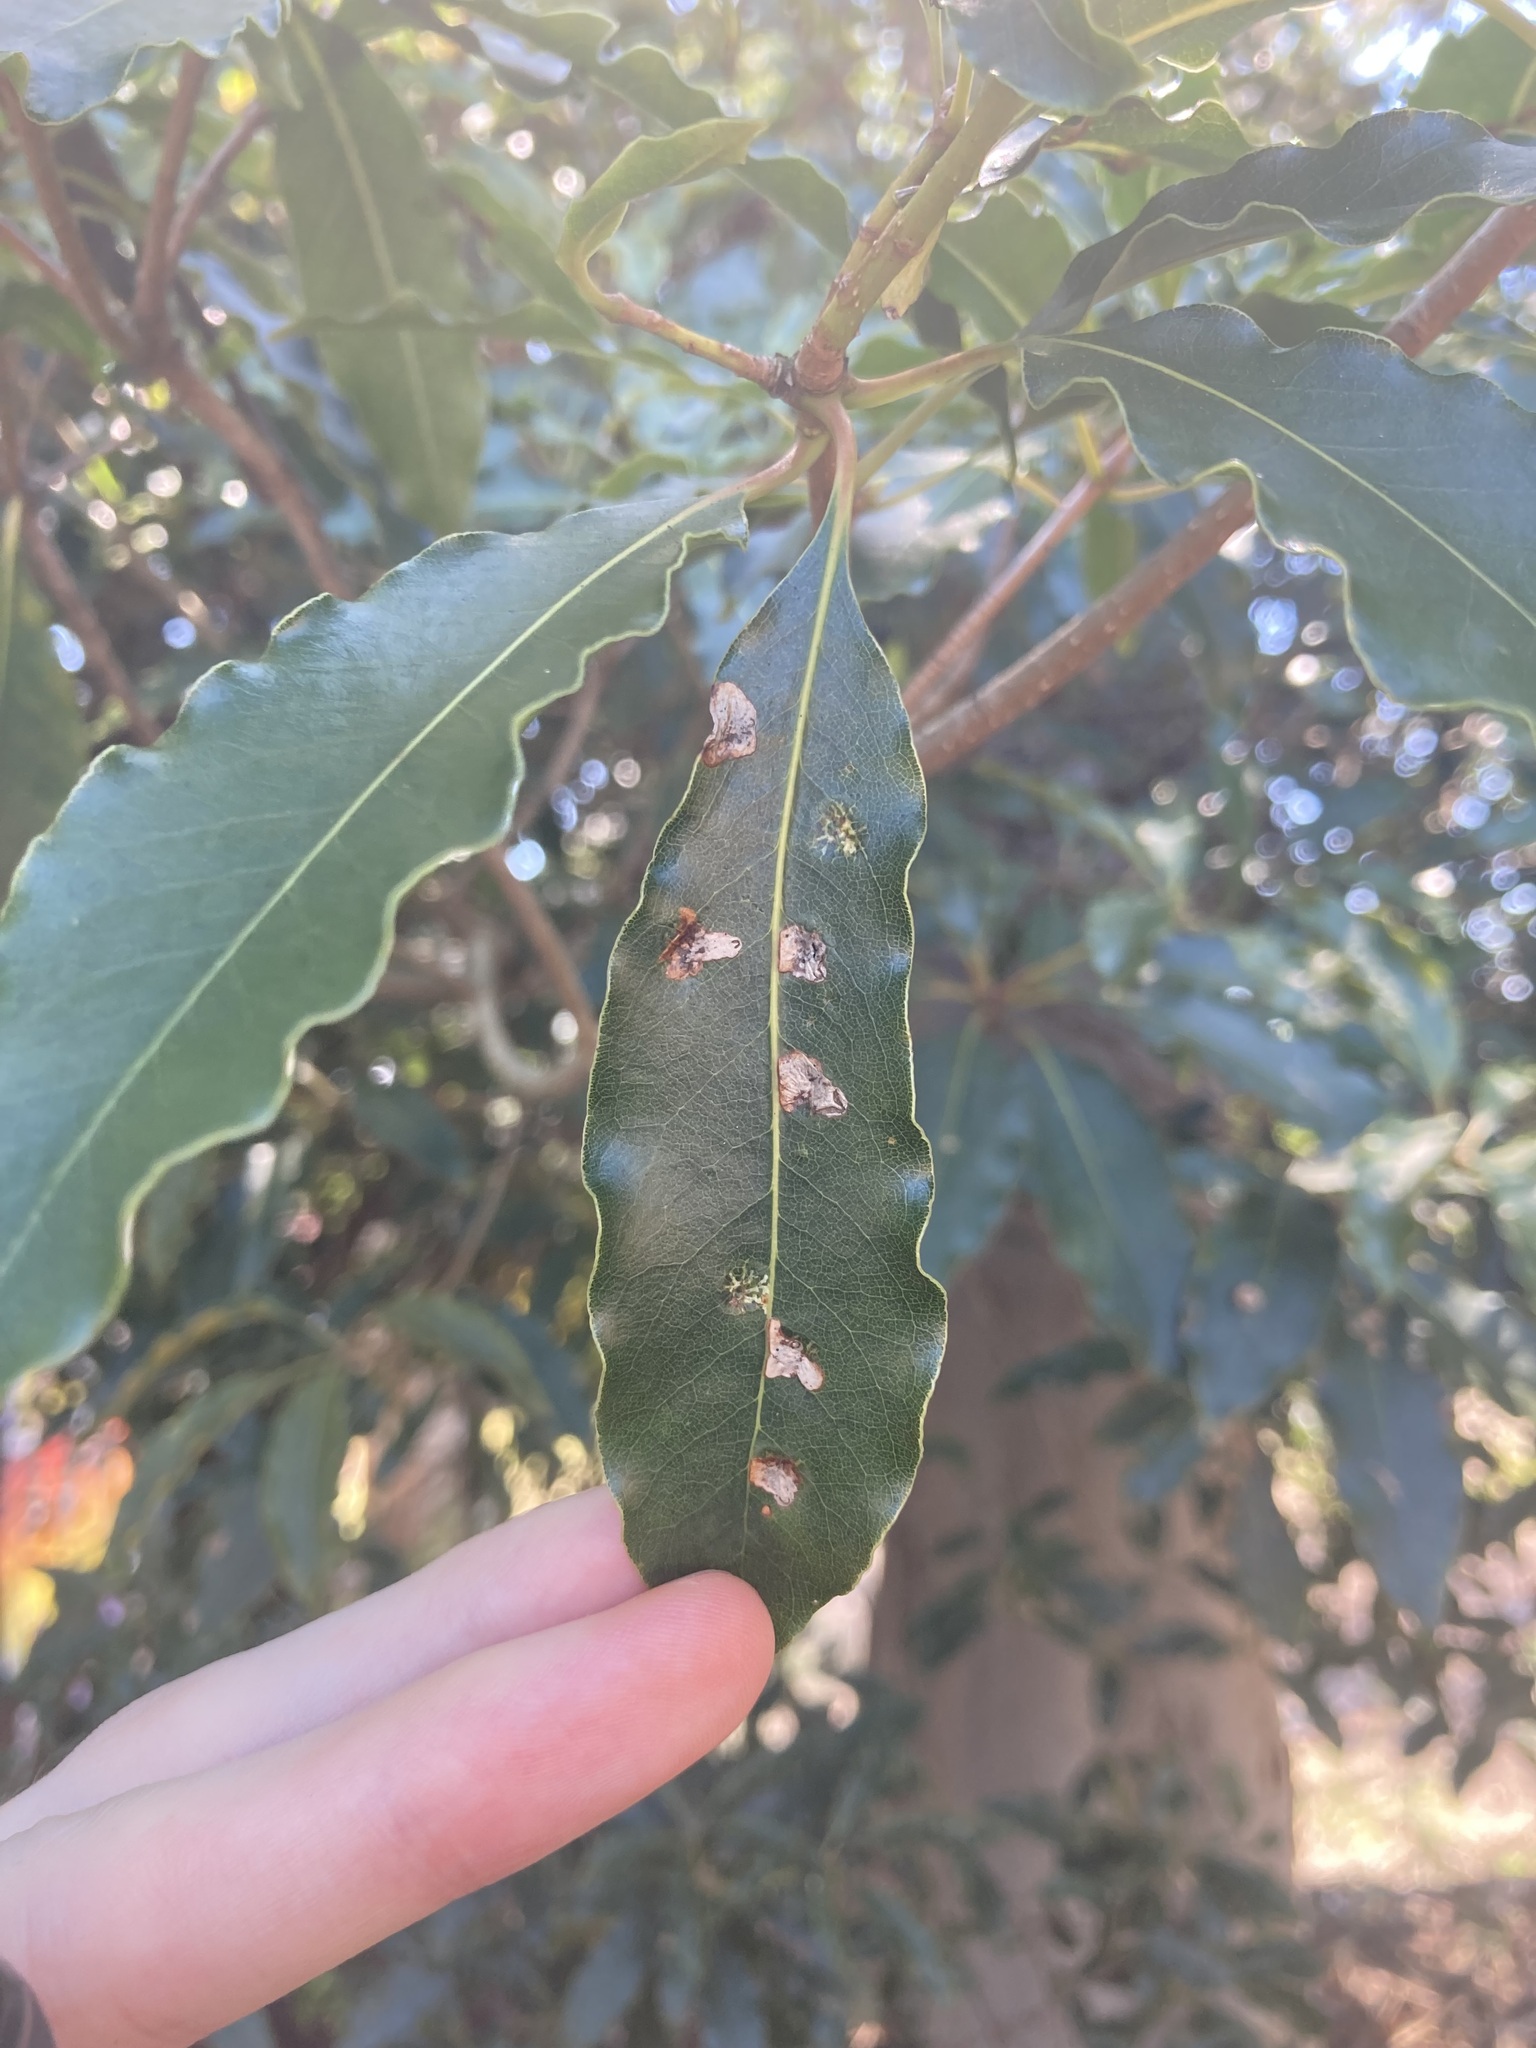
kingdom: Animalia
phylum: Arthropoda
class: Insecta
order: Diptera
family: Agromyzidae
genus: Phytoliriomyza
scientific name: Phytoliriomyza pittosporophylli
